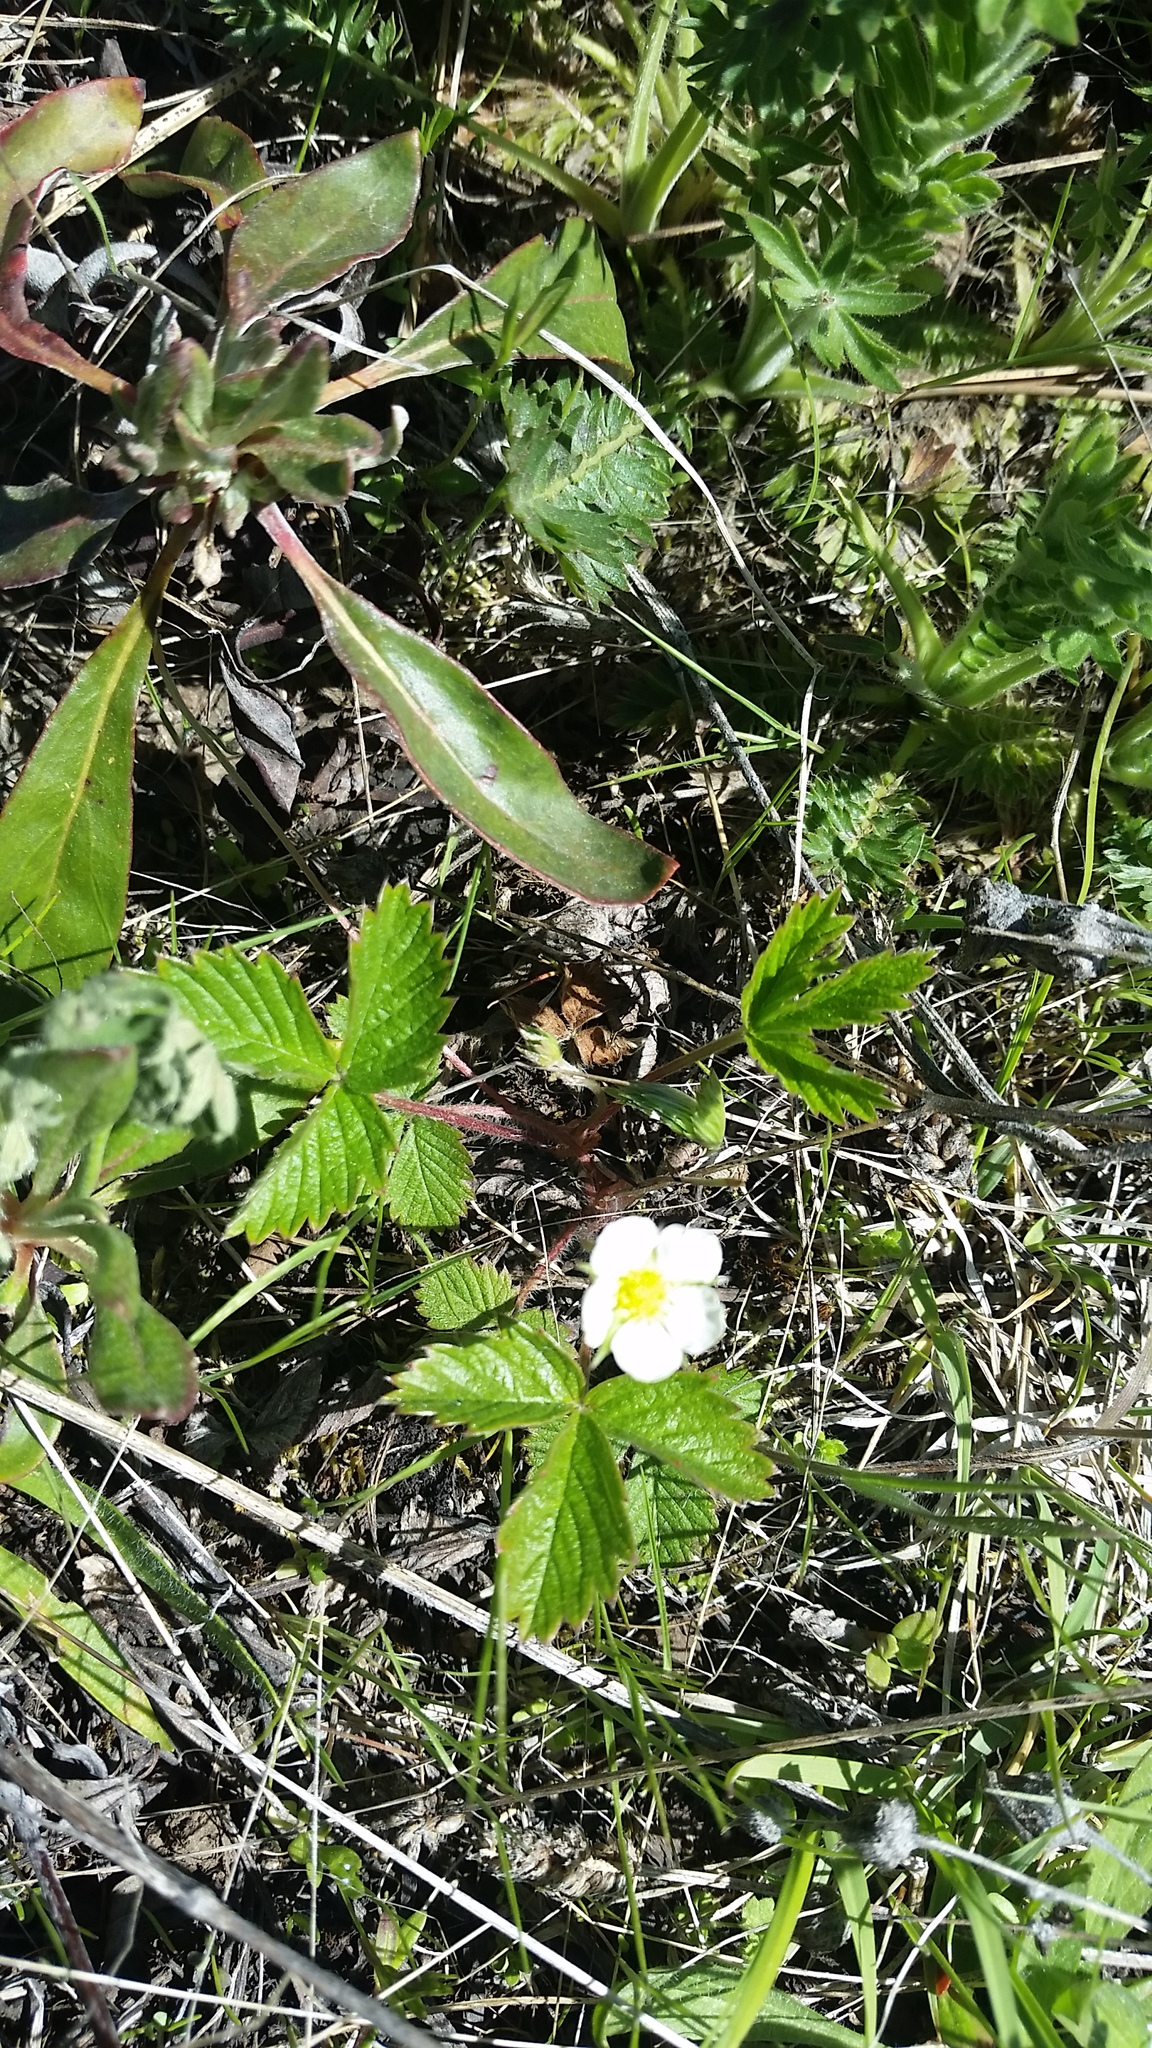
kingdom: Plantae
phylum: Tracheophyta
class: Magnoliopsida
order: Rosales
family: Rosaceae
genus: Fragaria
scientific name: Fragaria vesca
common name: Wild strawberry
